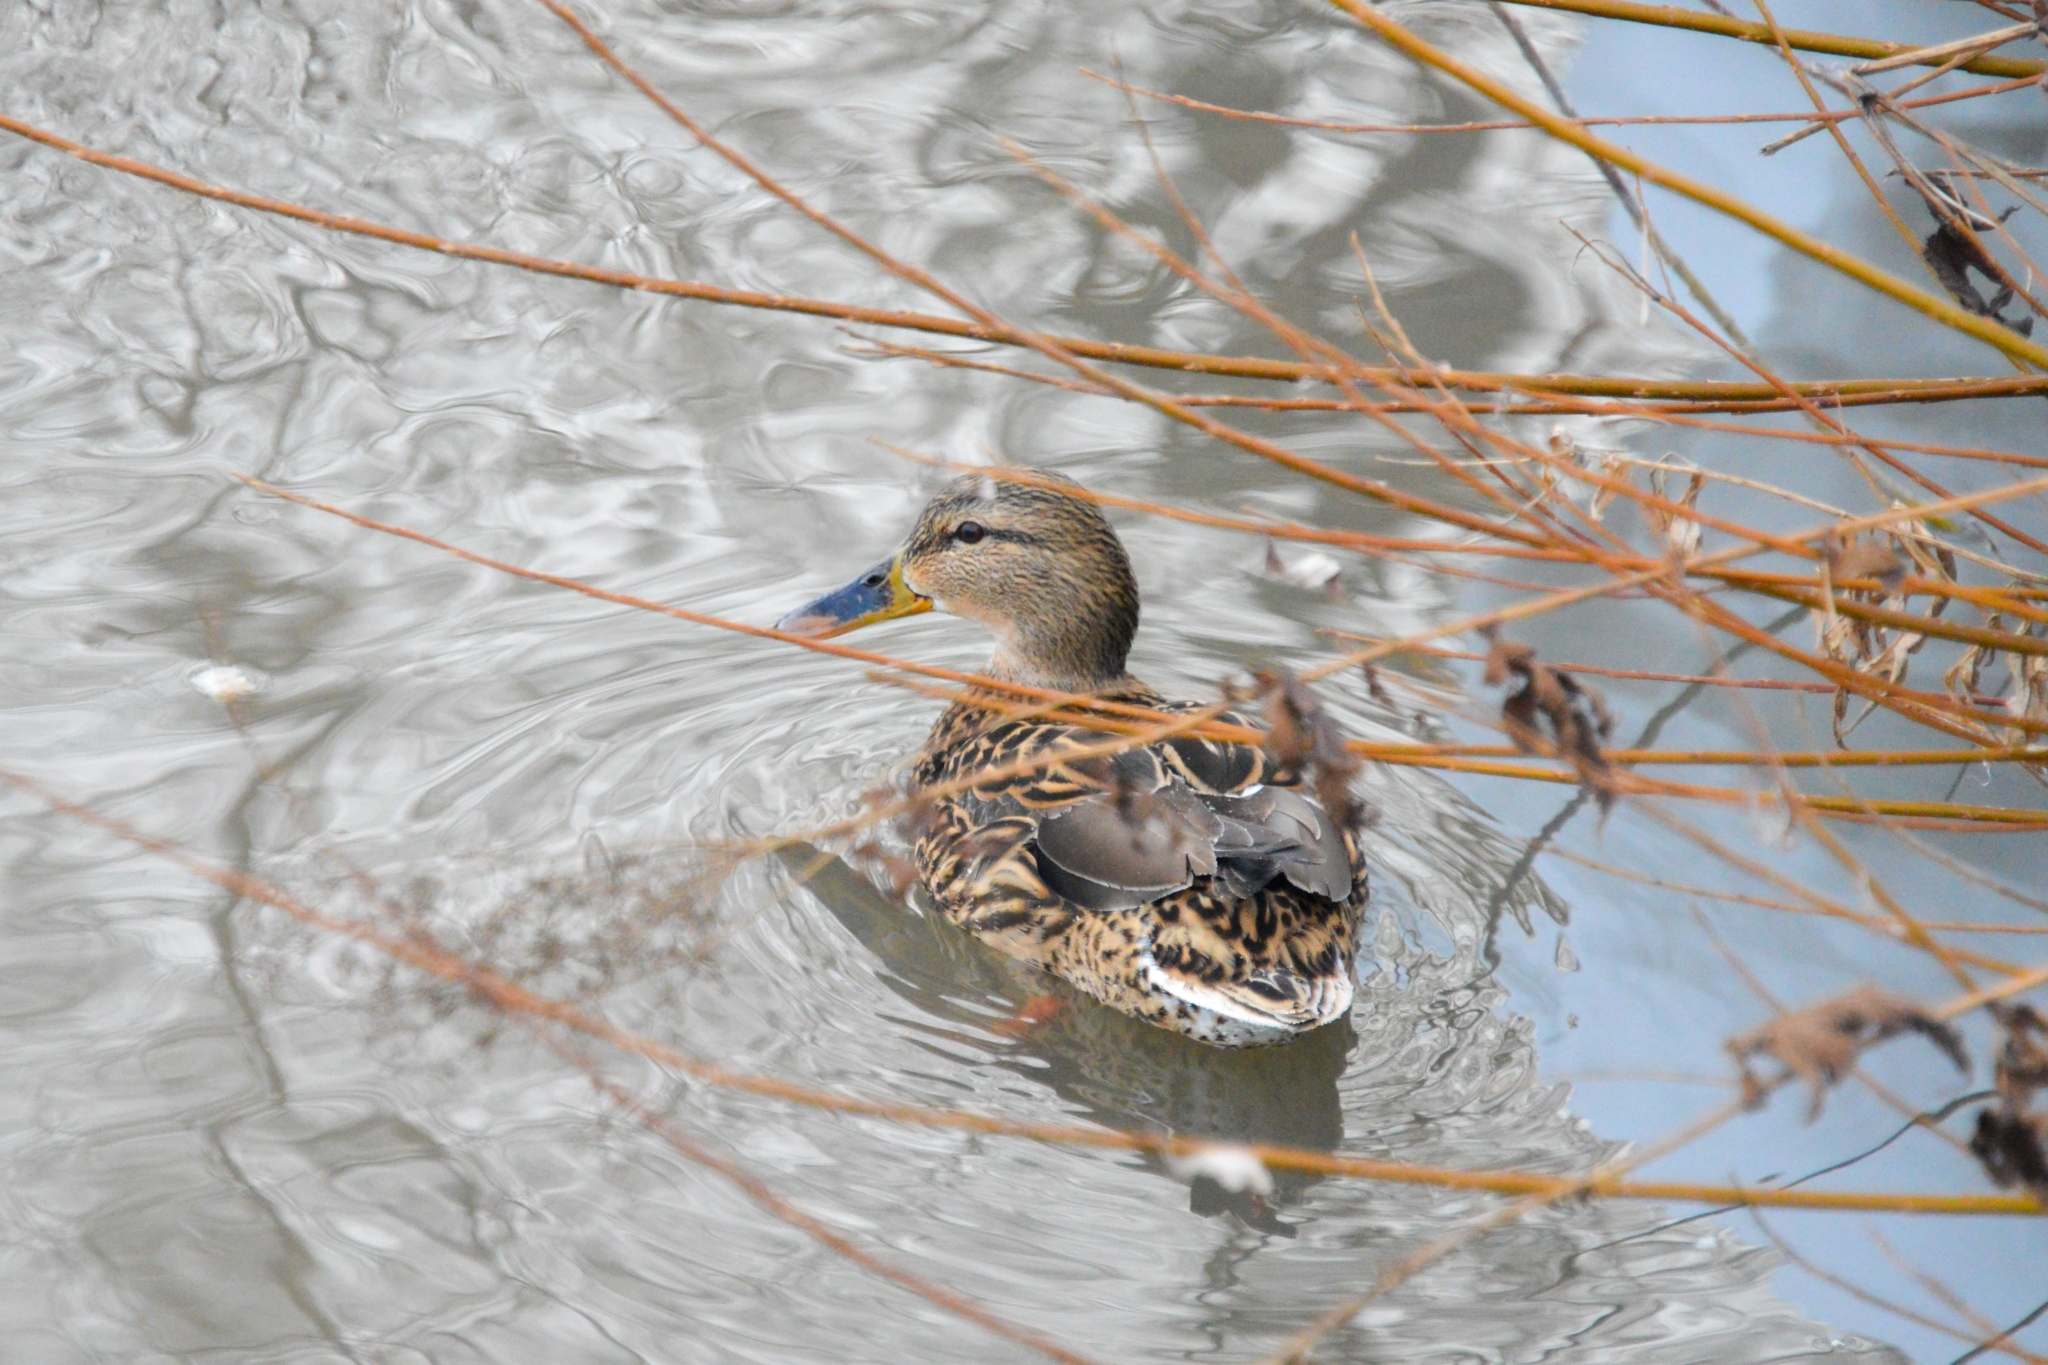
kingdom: Animalia
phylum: Chordata
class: Aves
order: Anseriformes
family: Anatidae
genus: Anas
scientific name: Anas platyrhynchos
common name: Mallard
